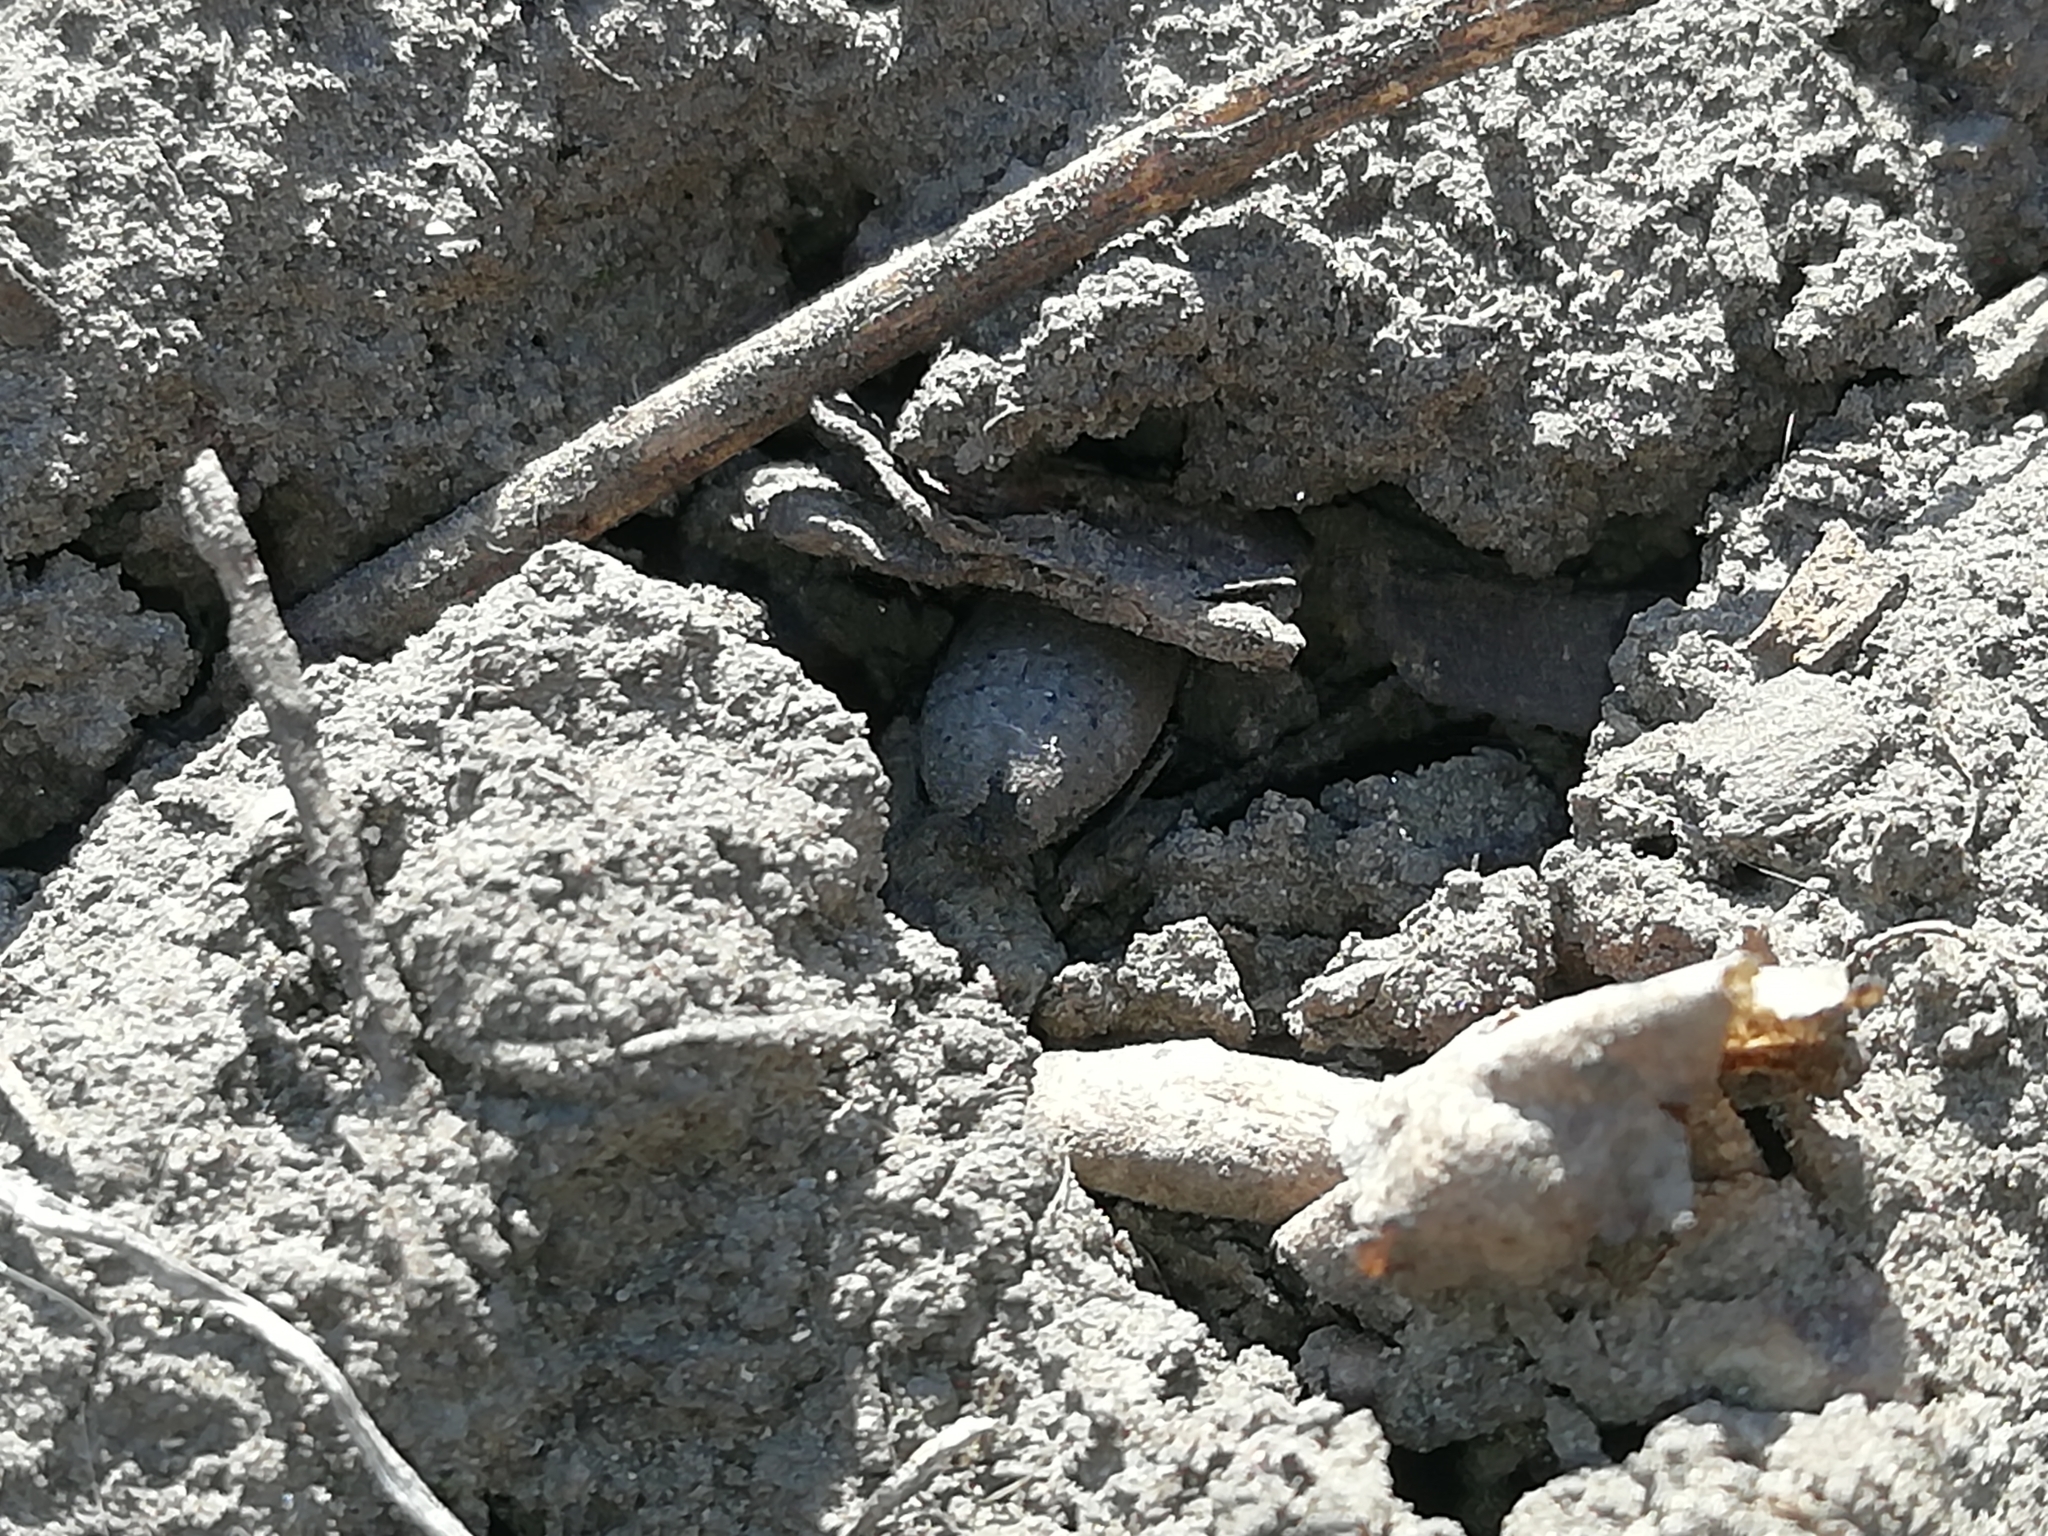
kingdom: Animalia
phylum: Arthropoda
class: Insecta
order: Coleoptera
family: Tenebrionidae
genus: Opatrum
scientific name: Opatrum sabulosum
